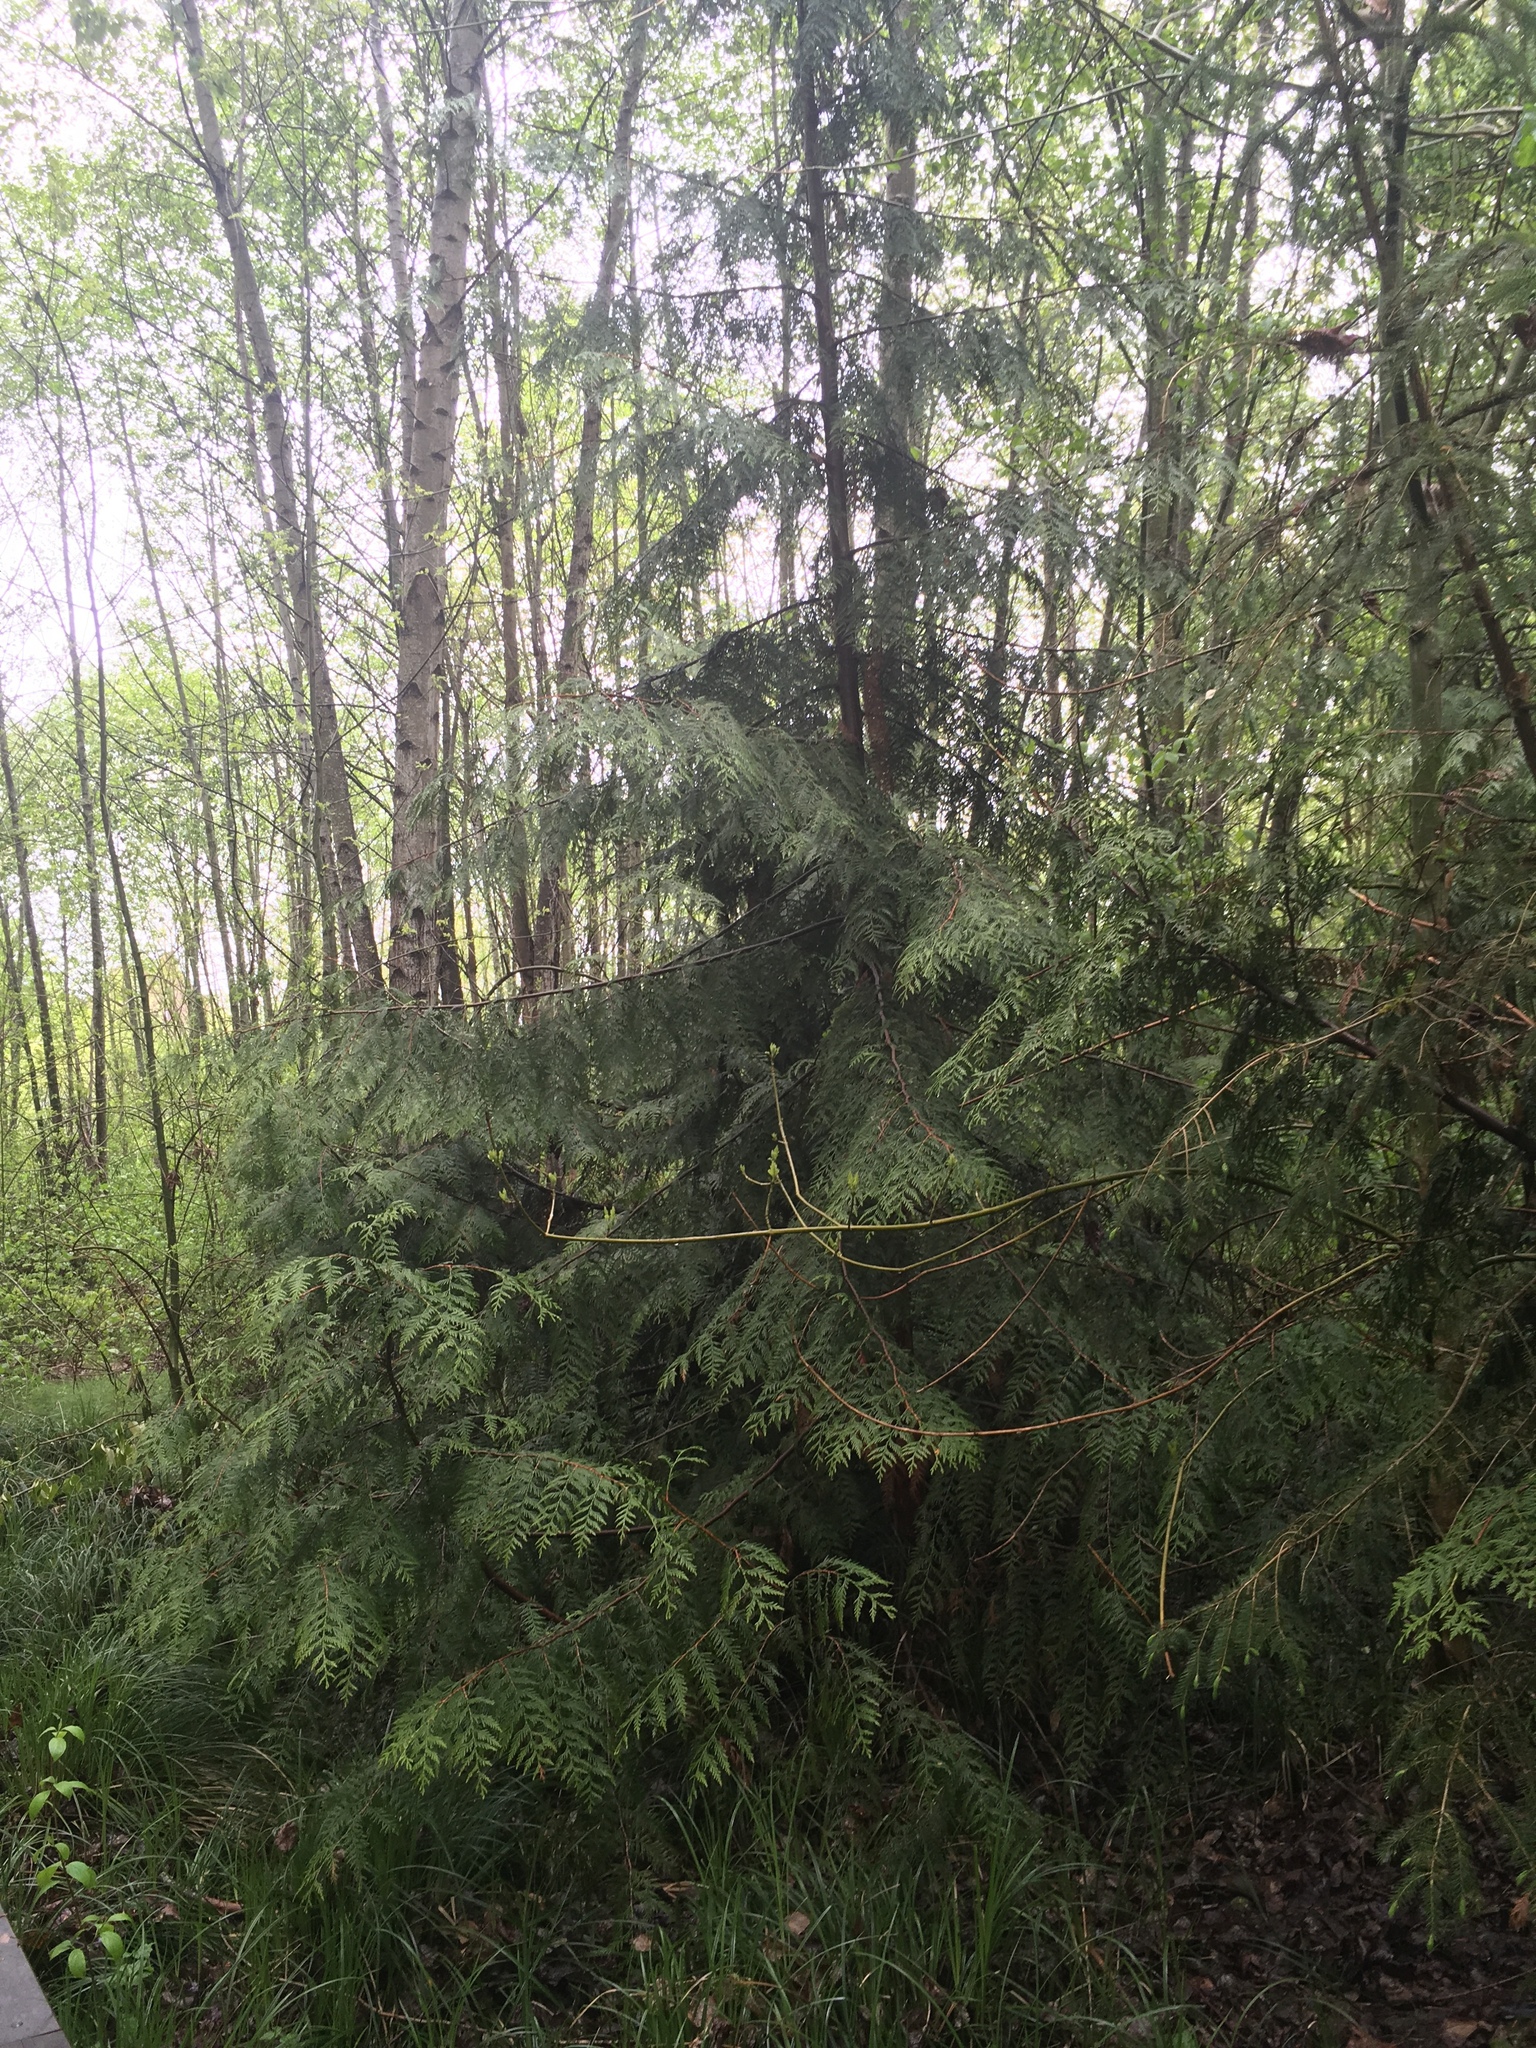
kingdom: Plantae
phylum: Tracheophyta
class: Pinopsida
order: Pinales
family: Cupressaceae
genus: Thuja
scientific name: Thuja plicata
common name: Western red-cedar
